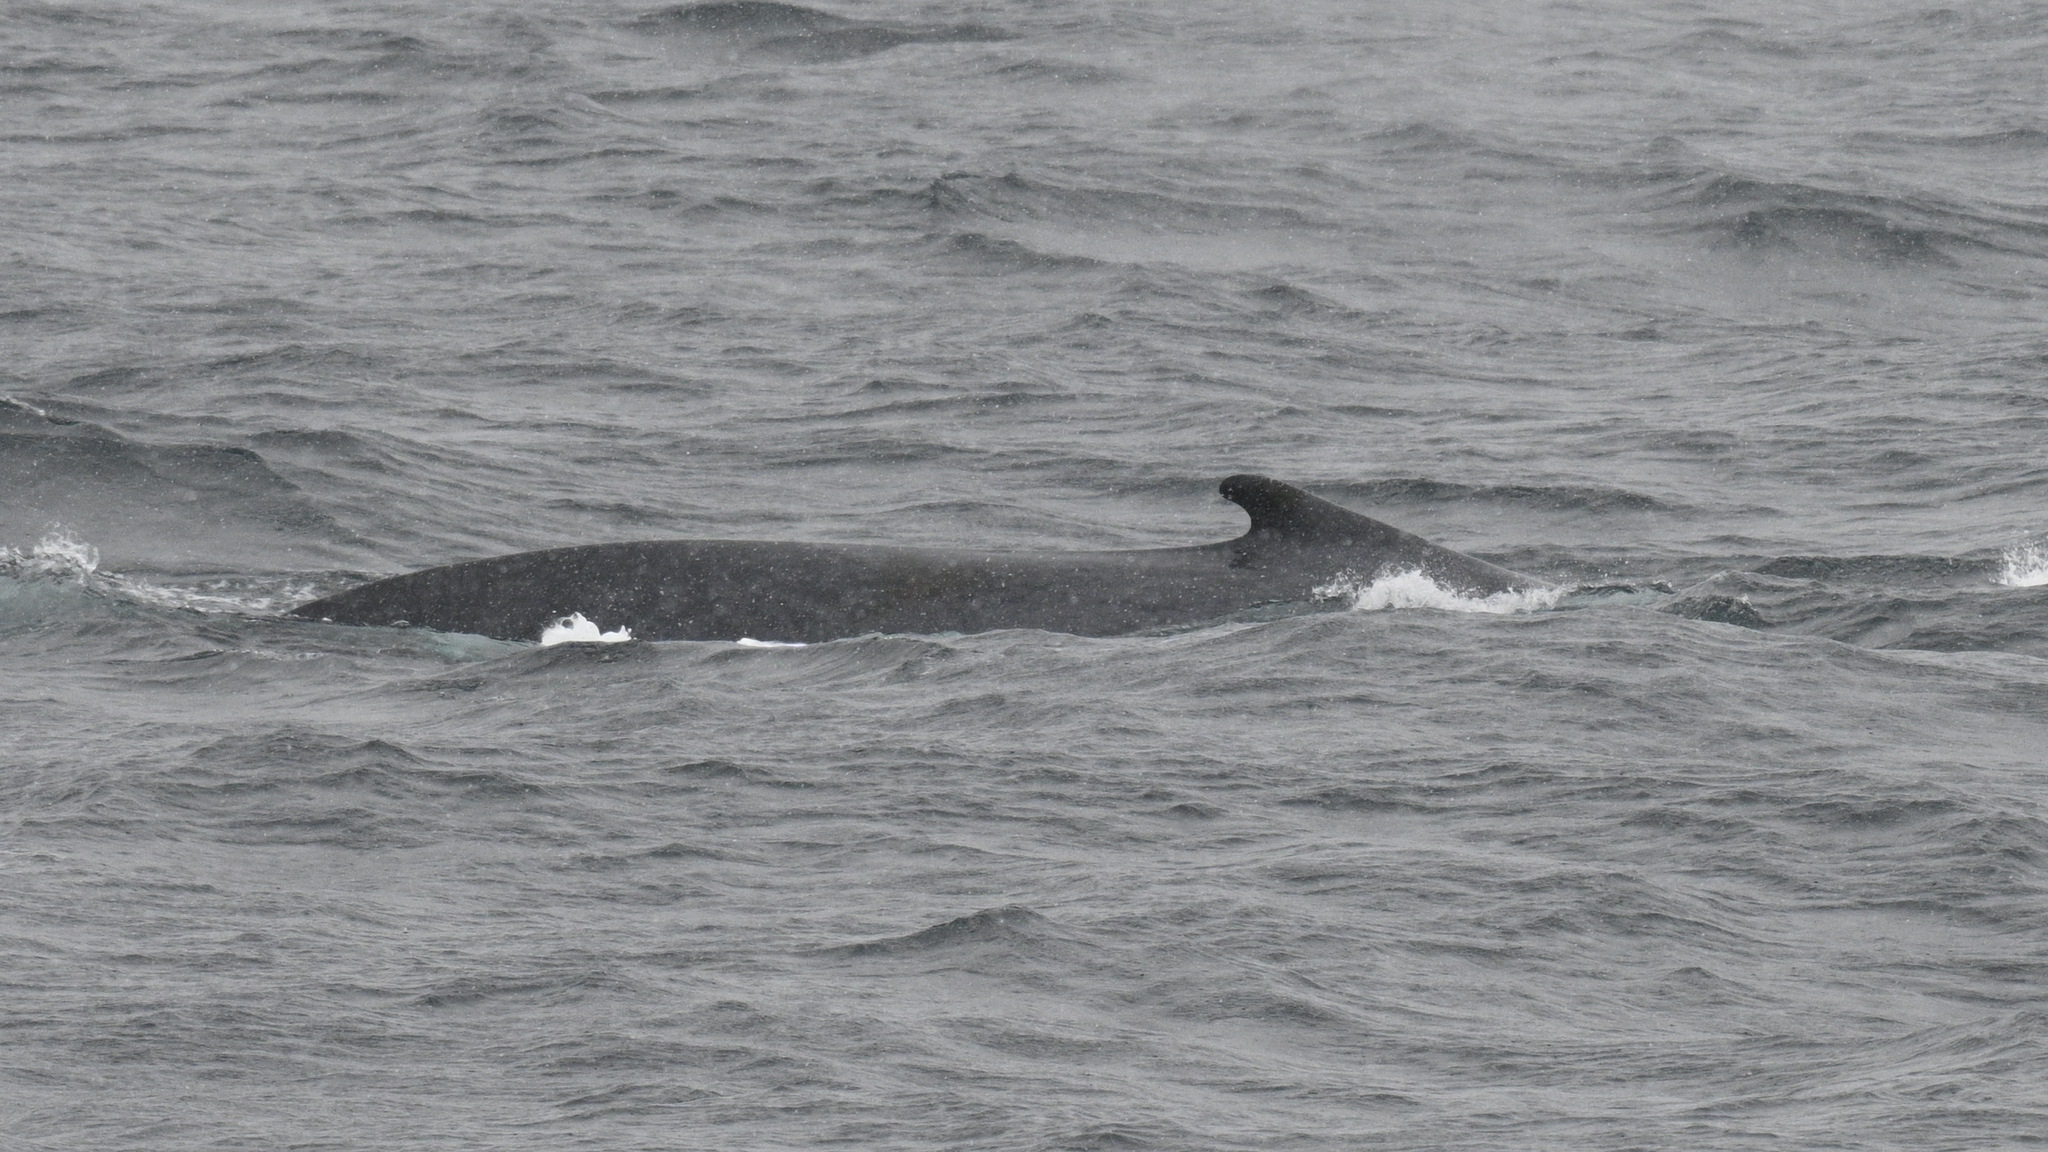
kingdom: Animalia
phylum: Chordata
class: Mammalia
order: Cetacea
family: Balaenopteridae
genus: Balaenoptera
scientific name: Balaenoptera physalus
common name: Fin whale
